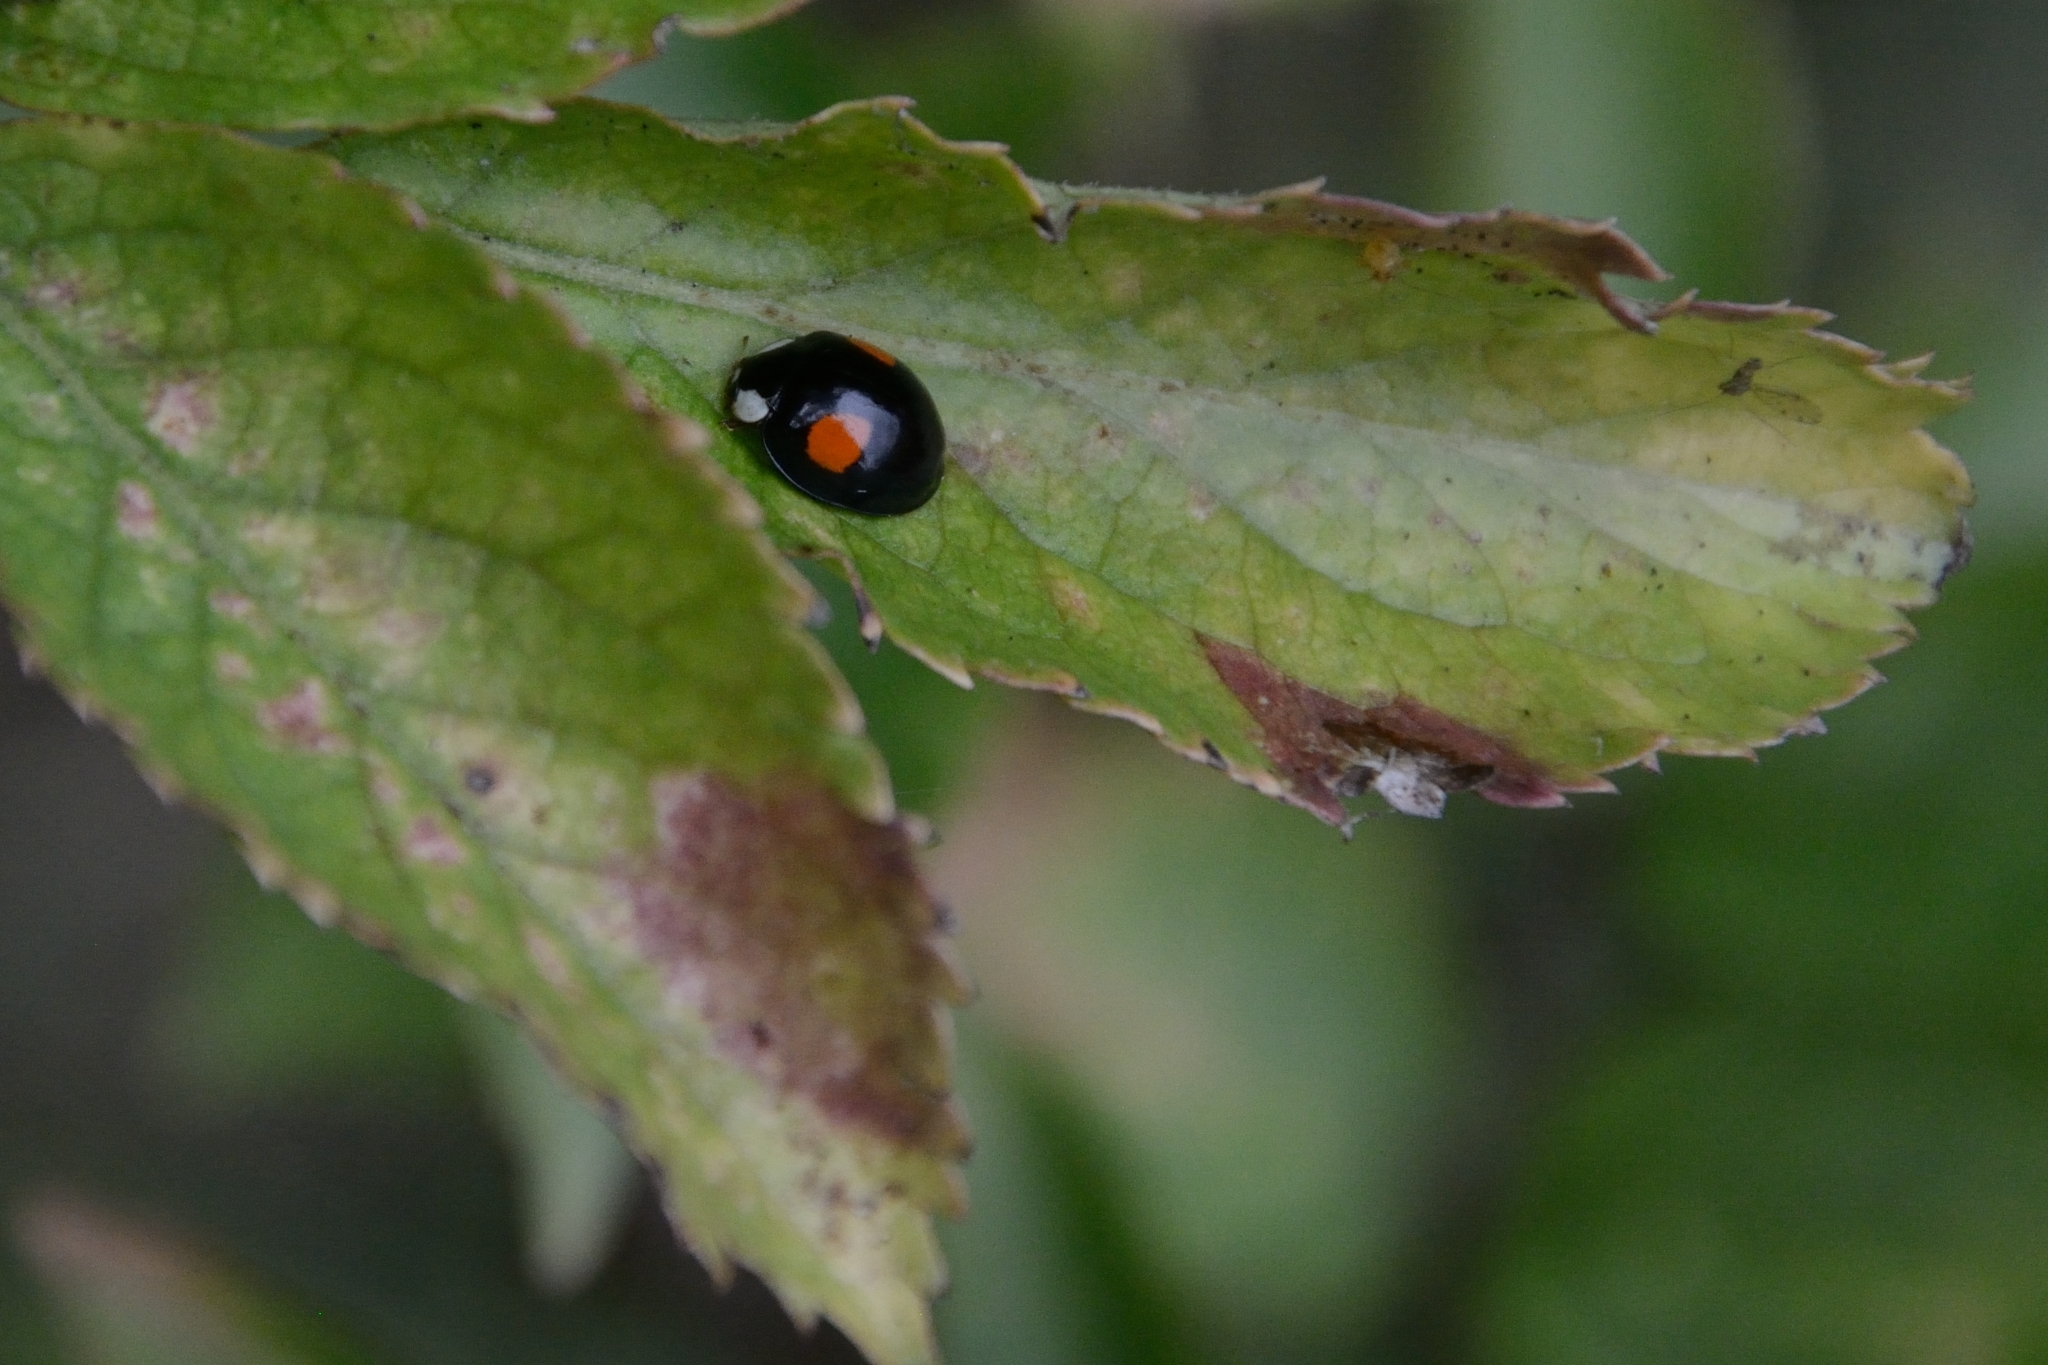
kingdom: Animalia
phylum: Arthropoda
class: Insecta
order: Coleoptera
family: Coccinellidae
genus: Harmonia
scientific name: Harmonia axyridis
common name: Harlequin ladybird
